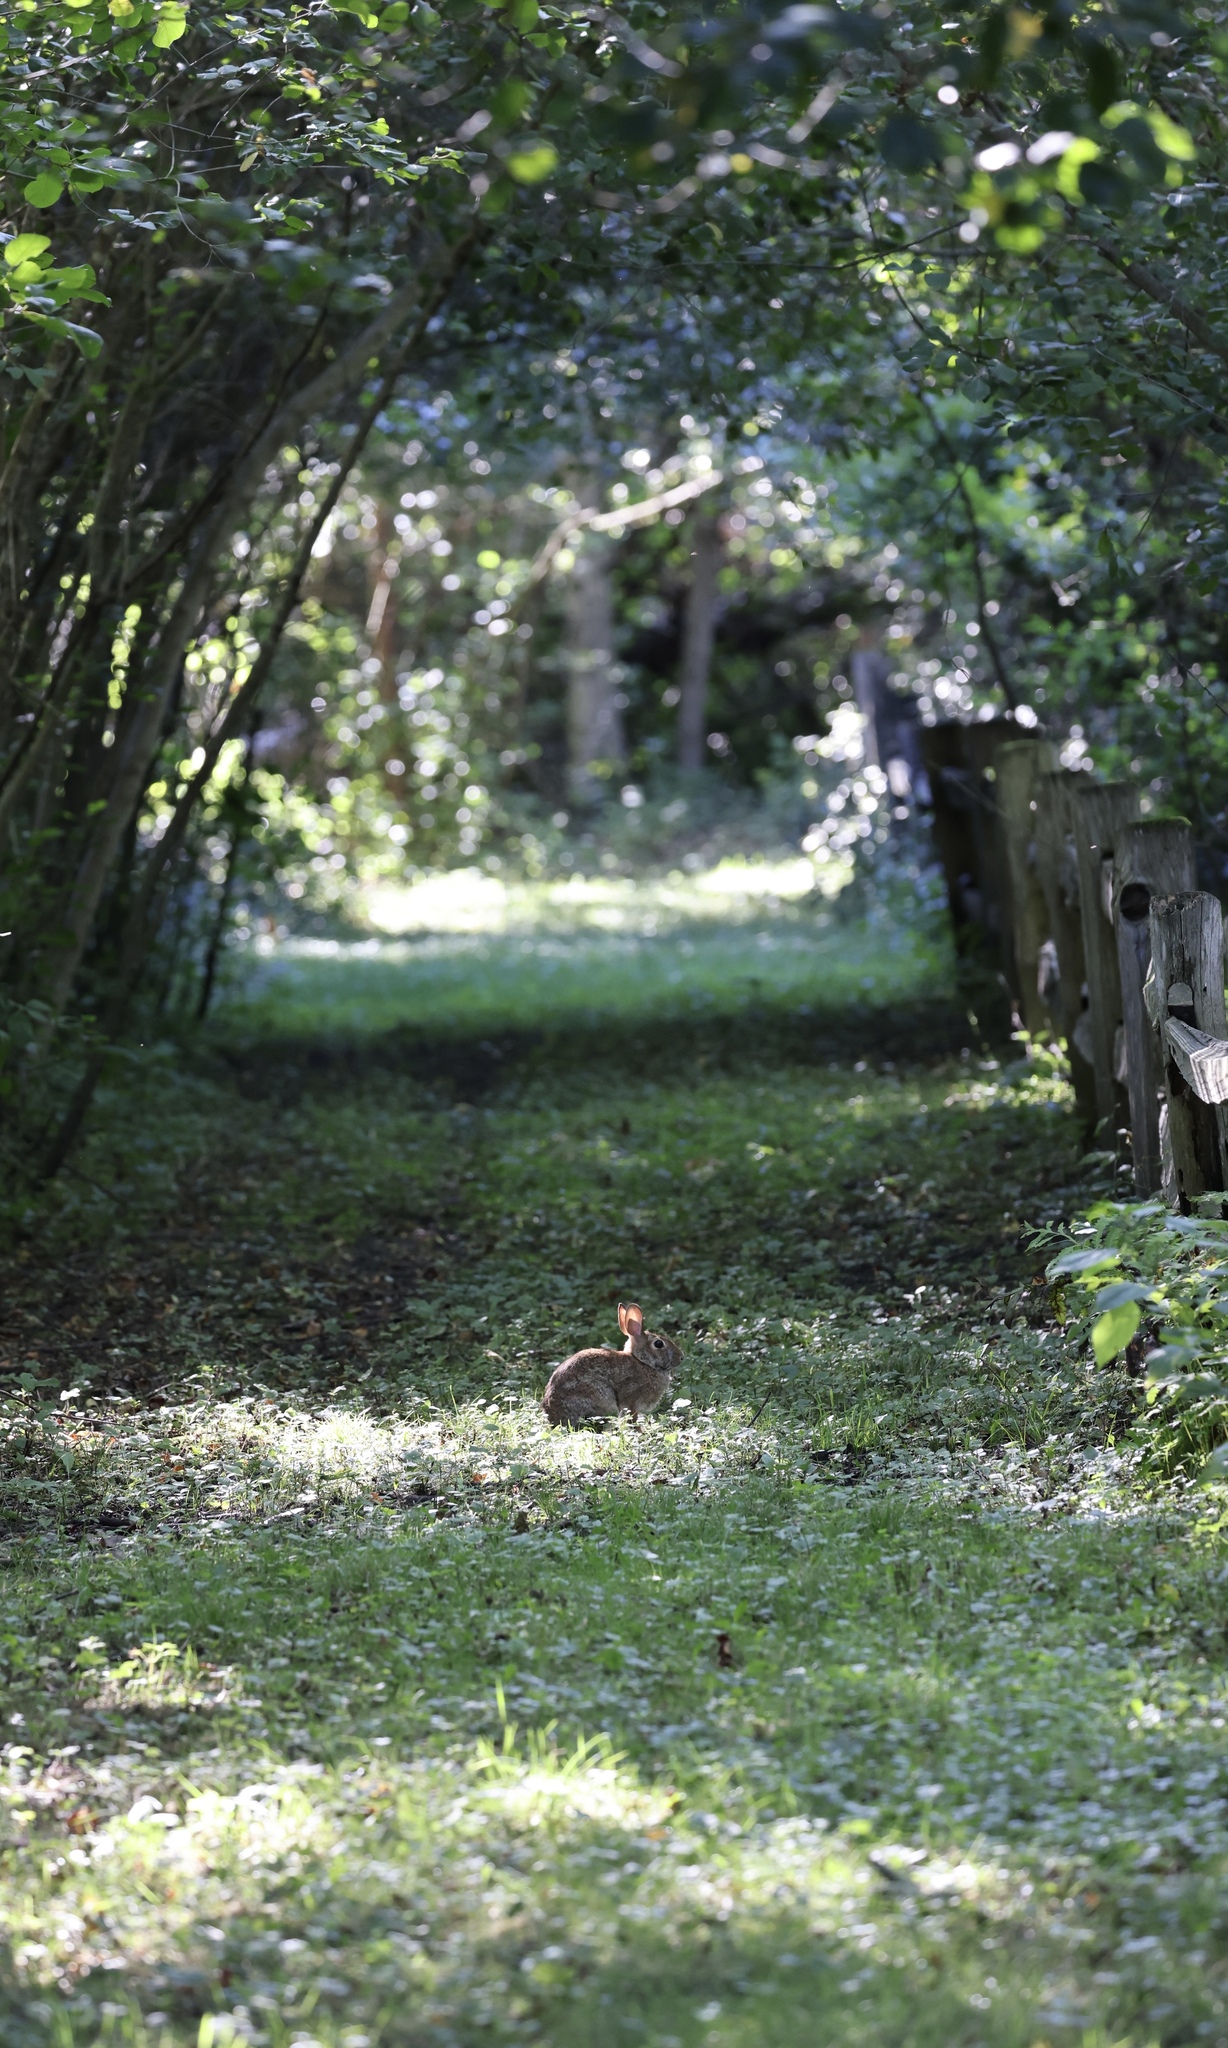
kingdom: Animalia
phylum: Chordata
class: Mammalia
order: Lagomorpha
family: Leporidae
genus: Sylvilagus
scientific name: Sylvilagus floridanus
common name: Eastern cottontail
